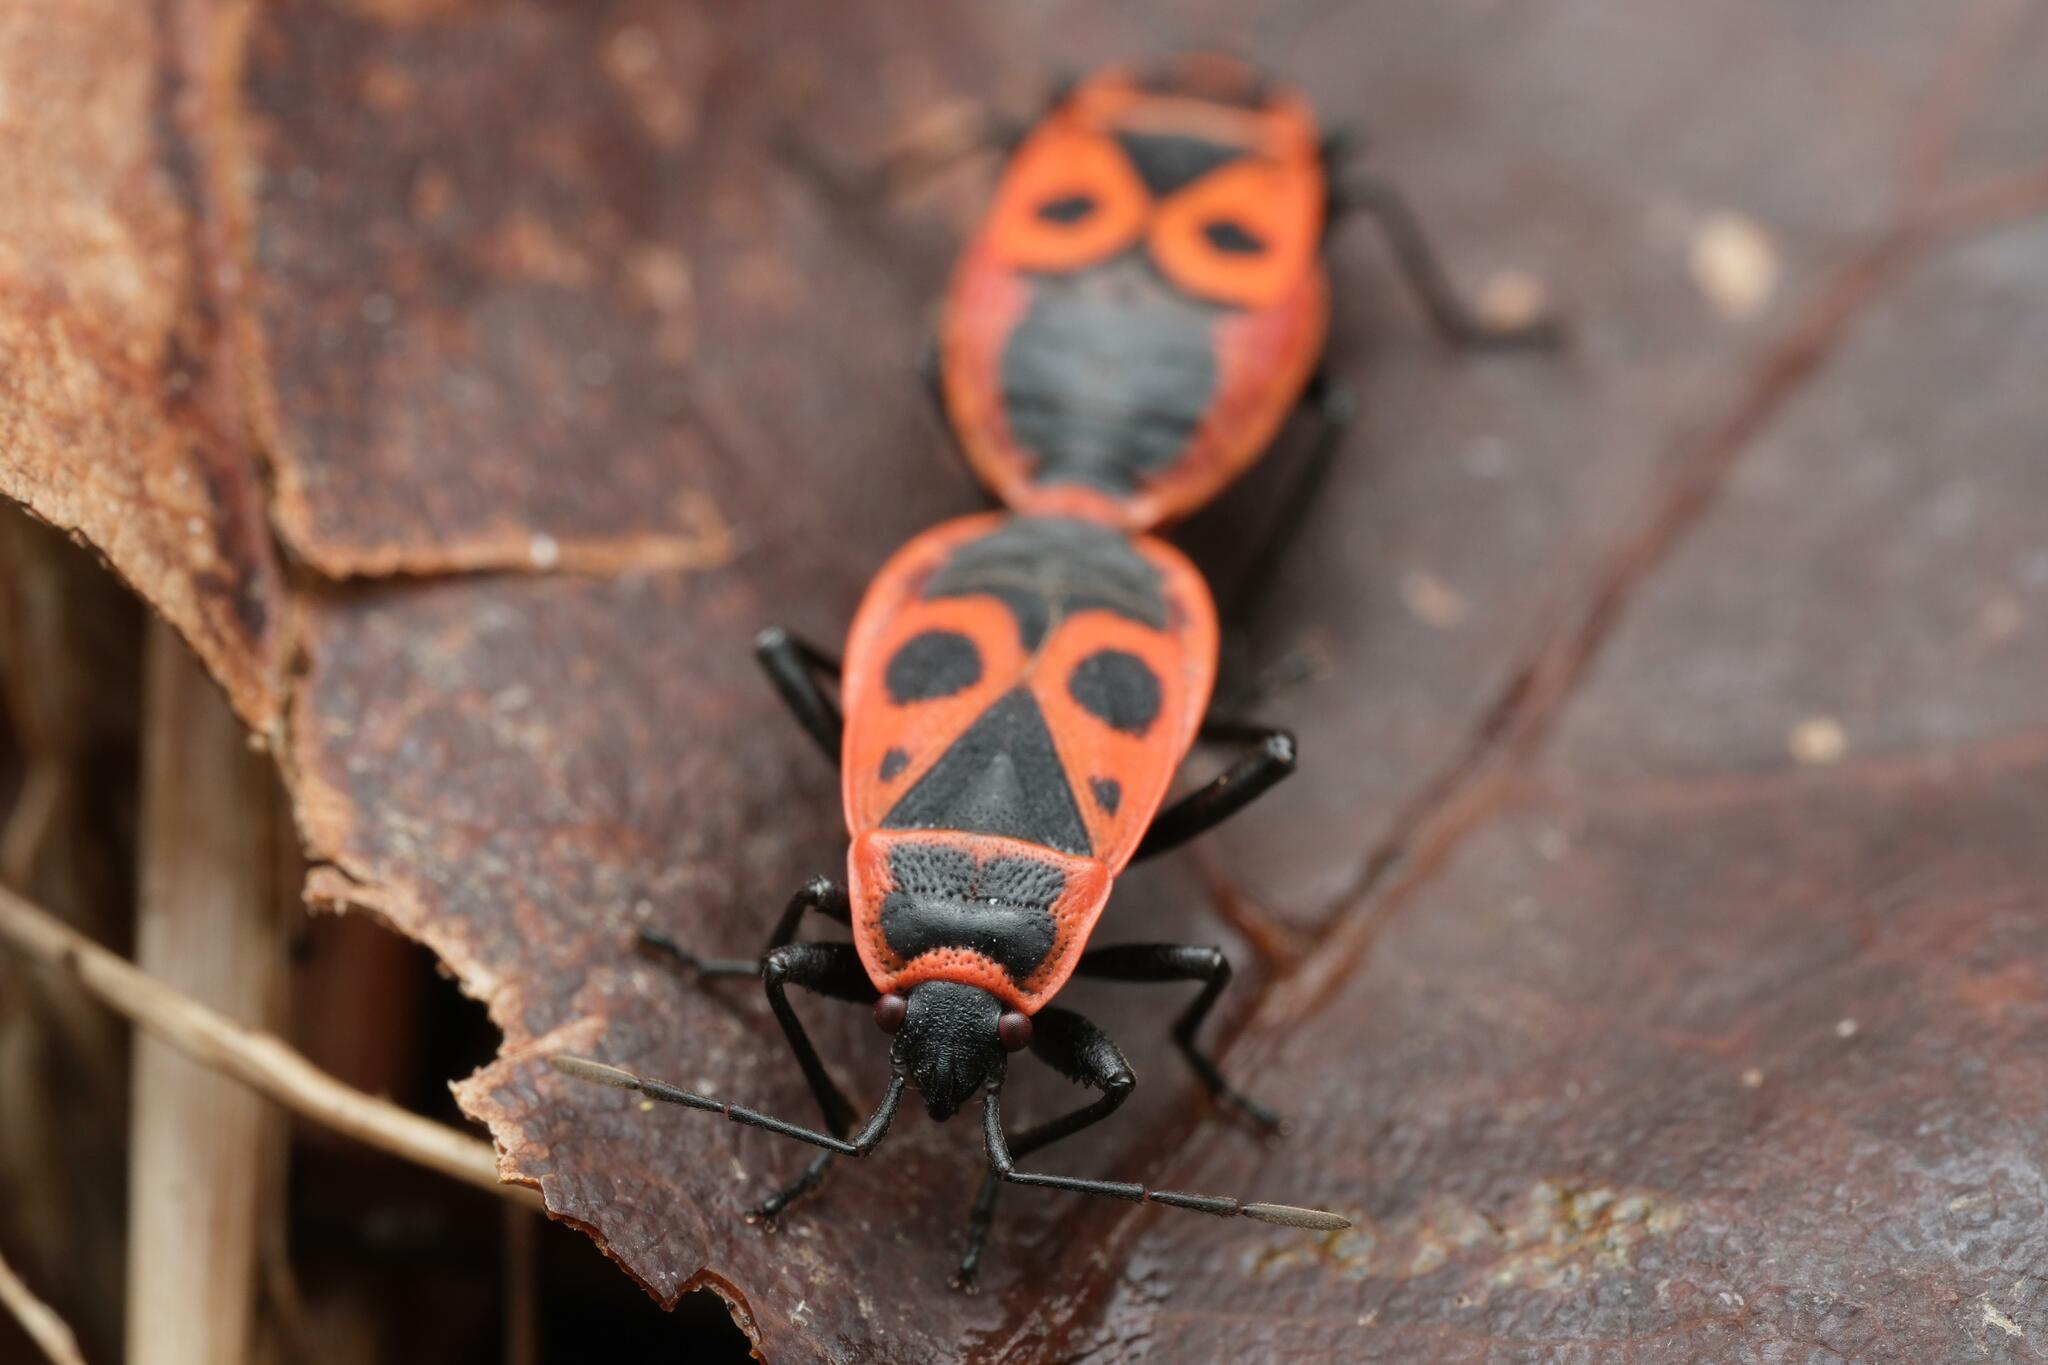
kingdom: Animalia
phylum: Arthropoda
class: Insecta
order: Hemiptera
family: Pyrrhocoridae
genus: Pyrrhocoris
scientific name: Pyrrhocoris apterus
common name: Firebug
